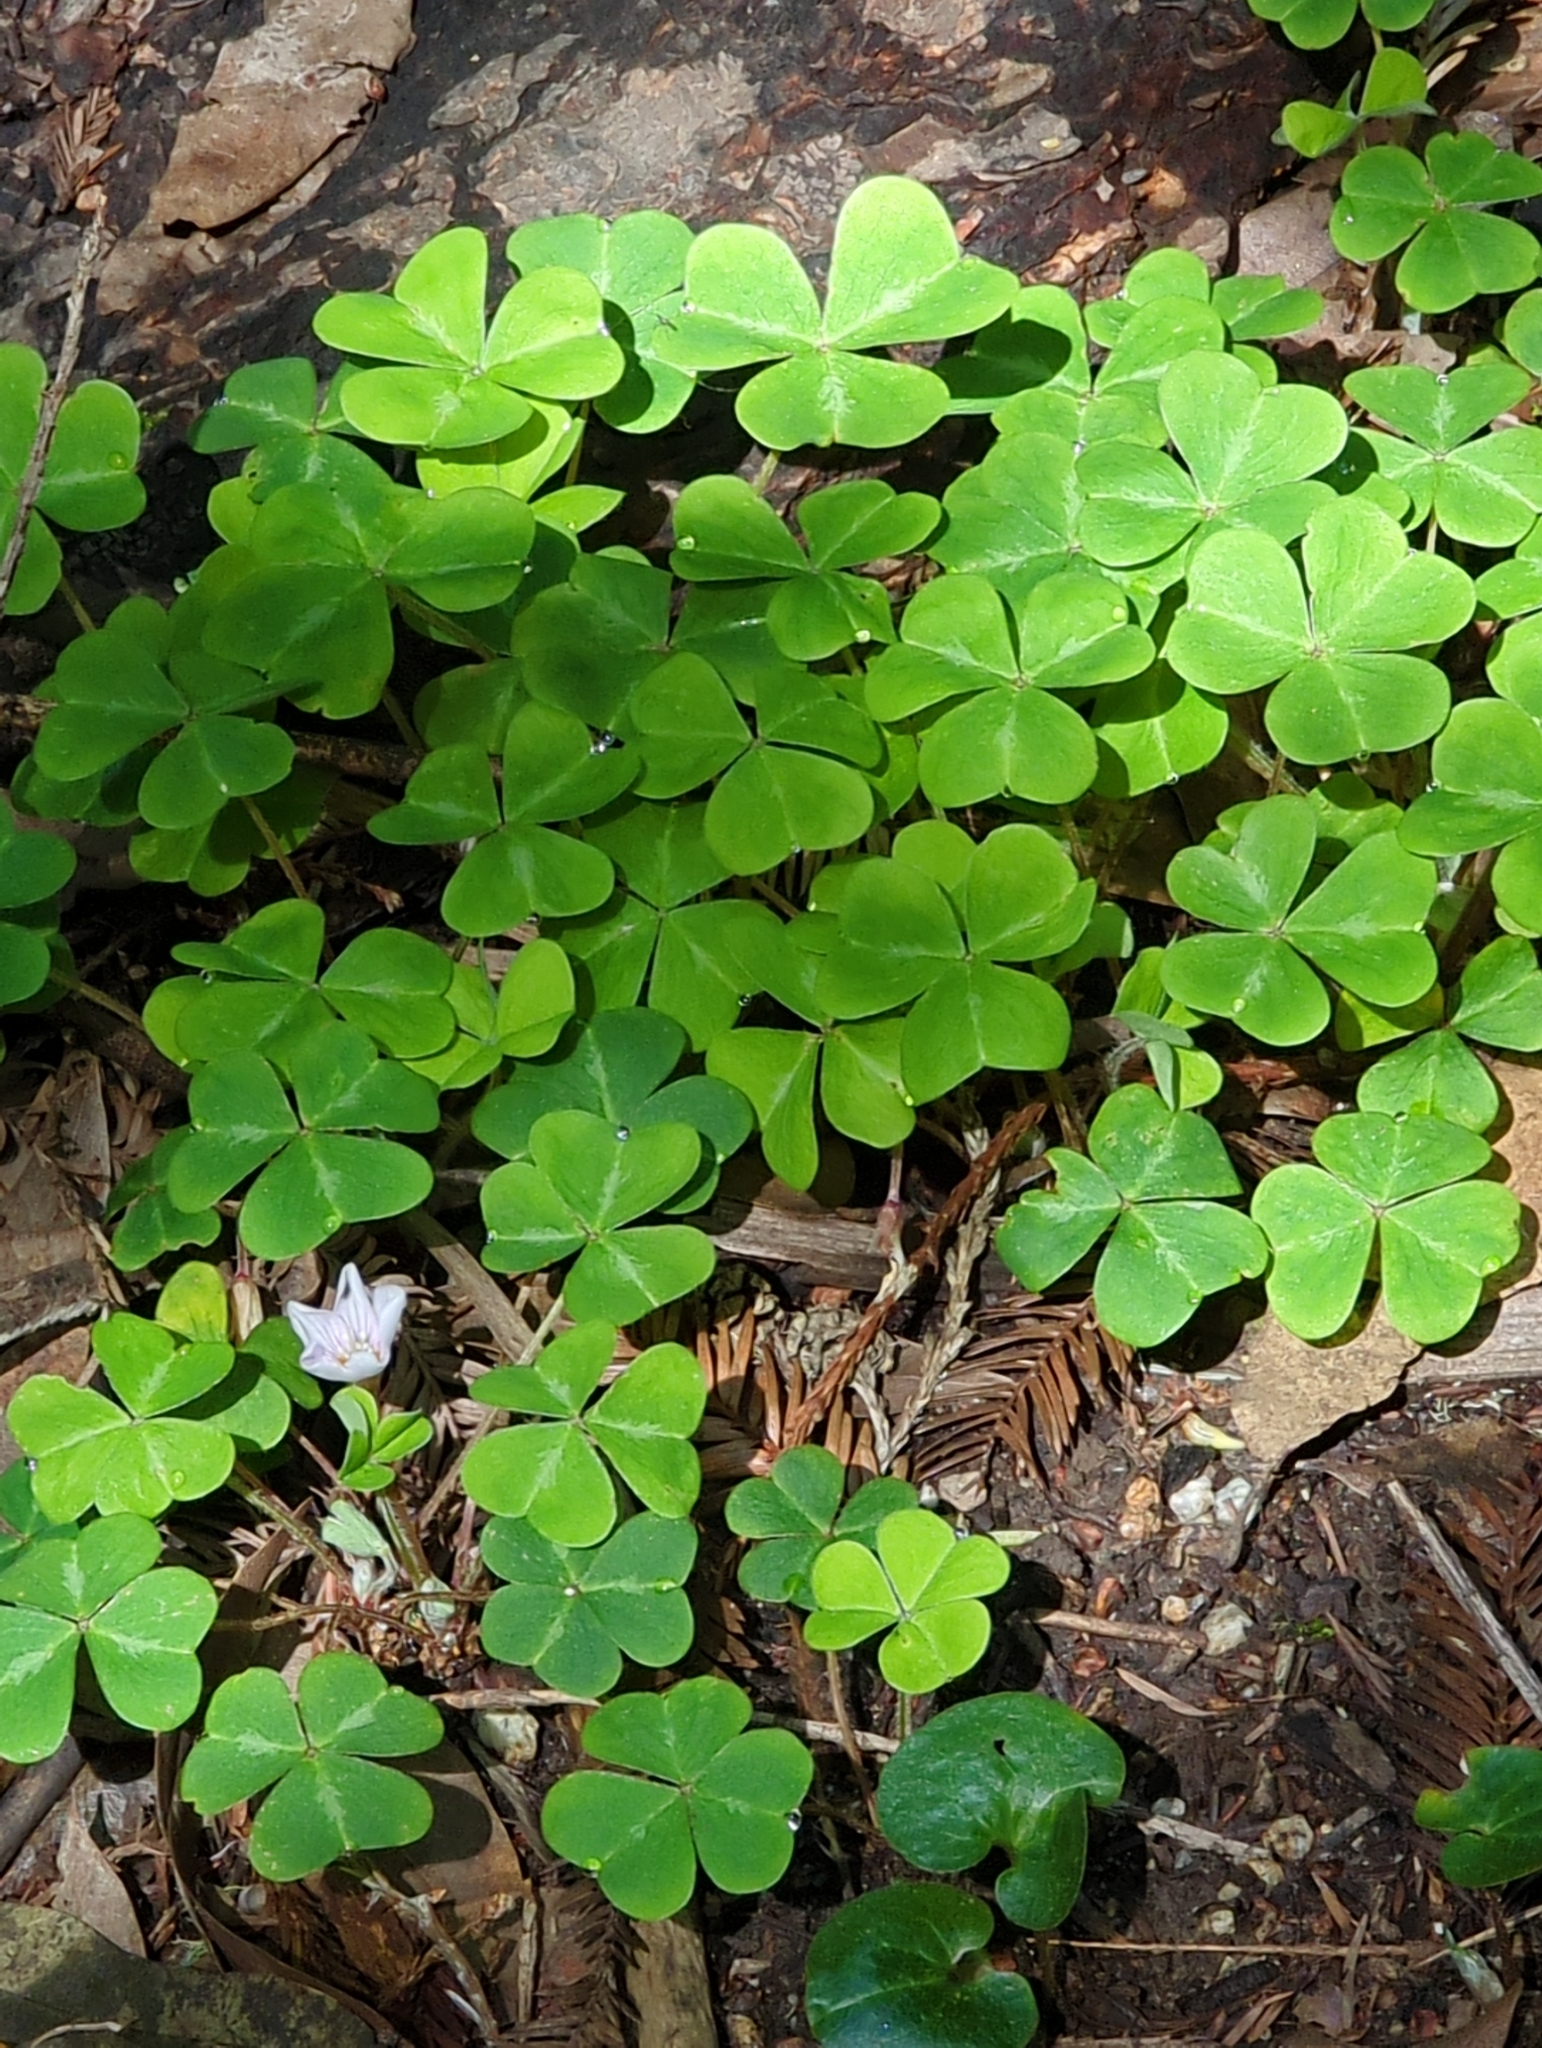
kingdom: Plantae
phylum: Tracheophyta
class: Magnoliopsida
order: Oxalidales
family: Oxalidaceae
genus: Oxalis
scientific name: Oxalis oregana
